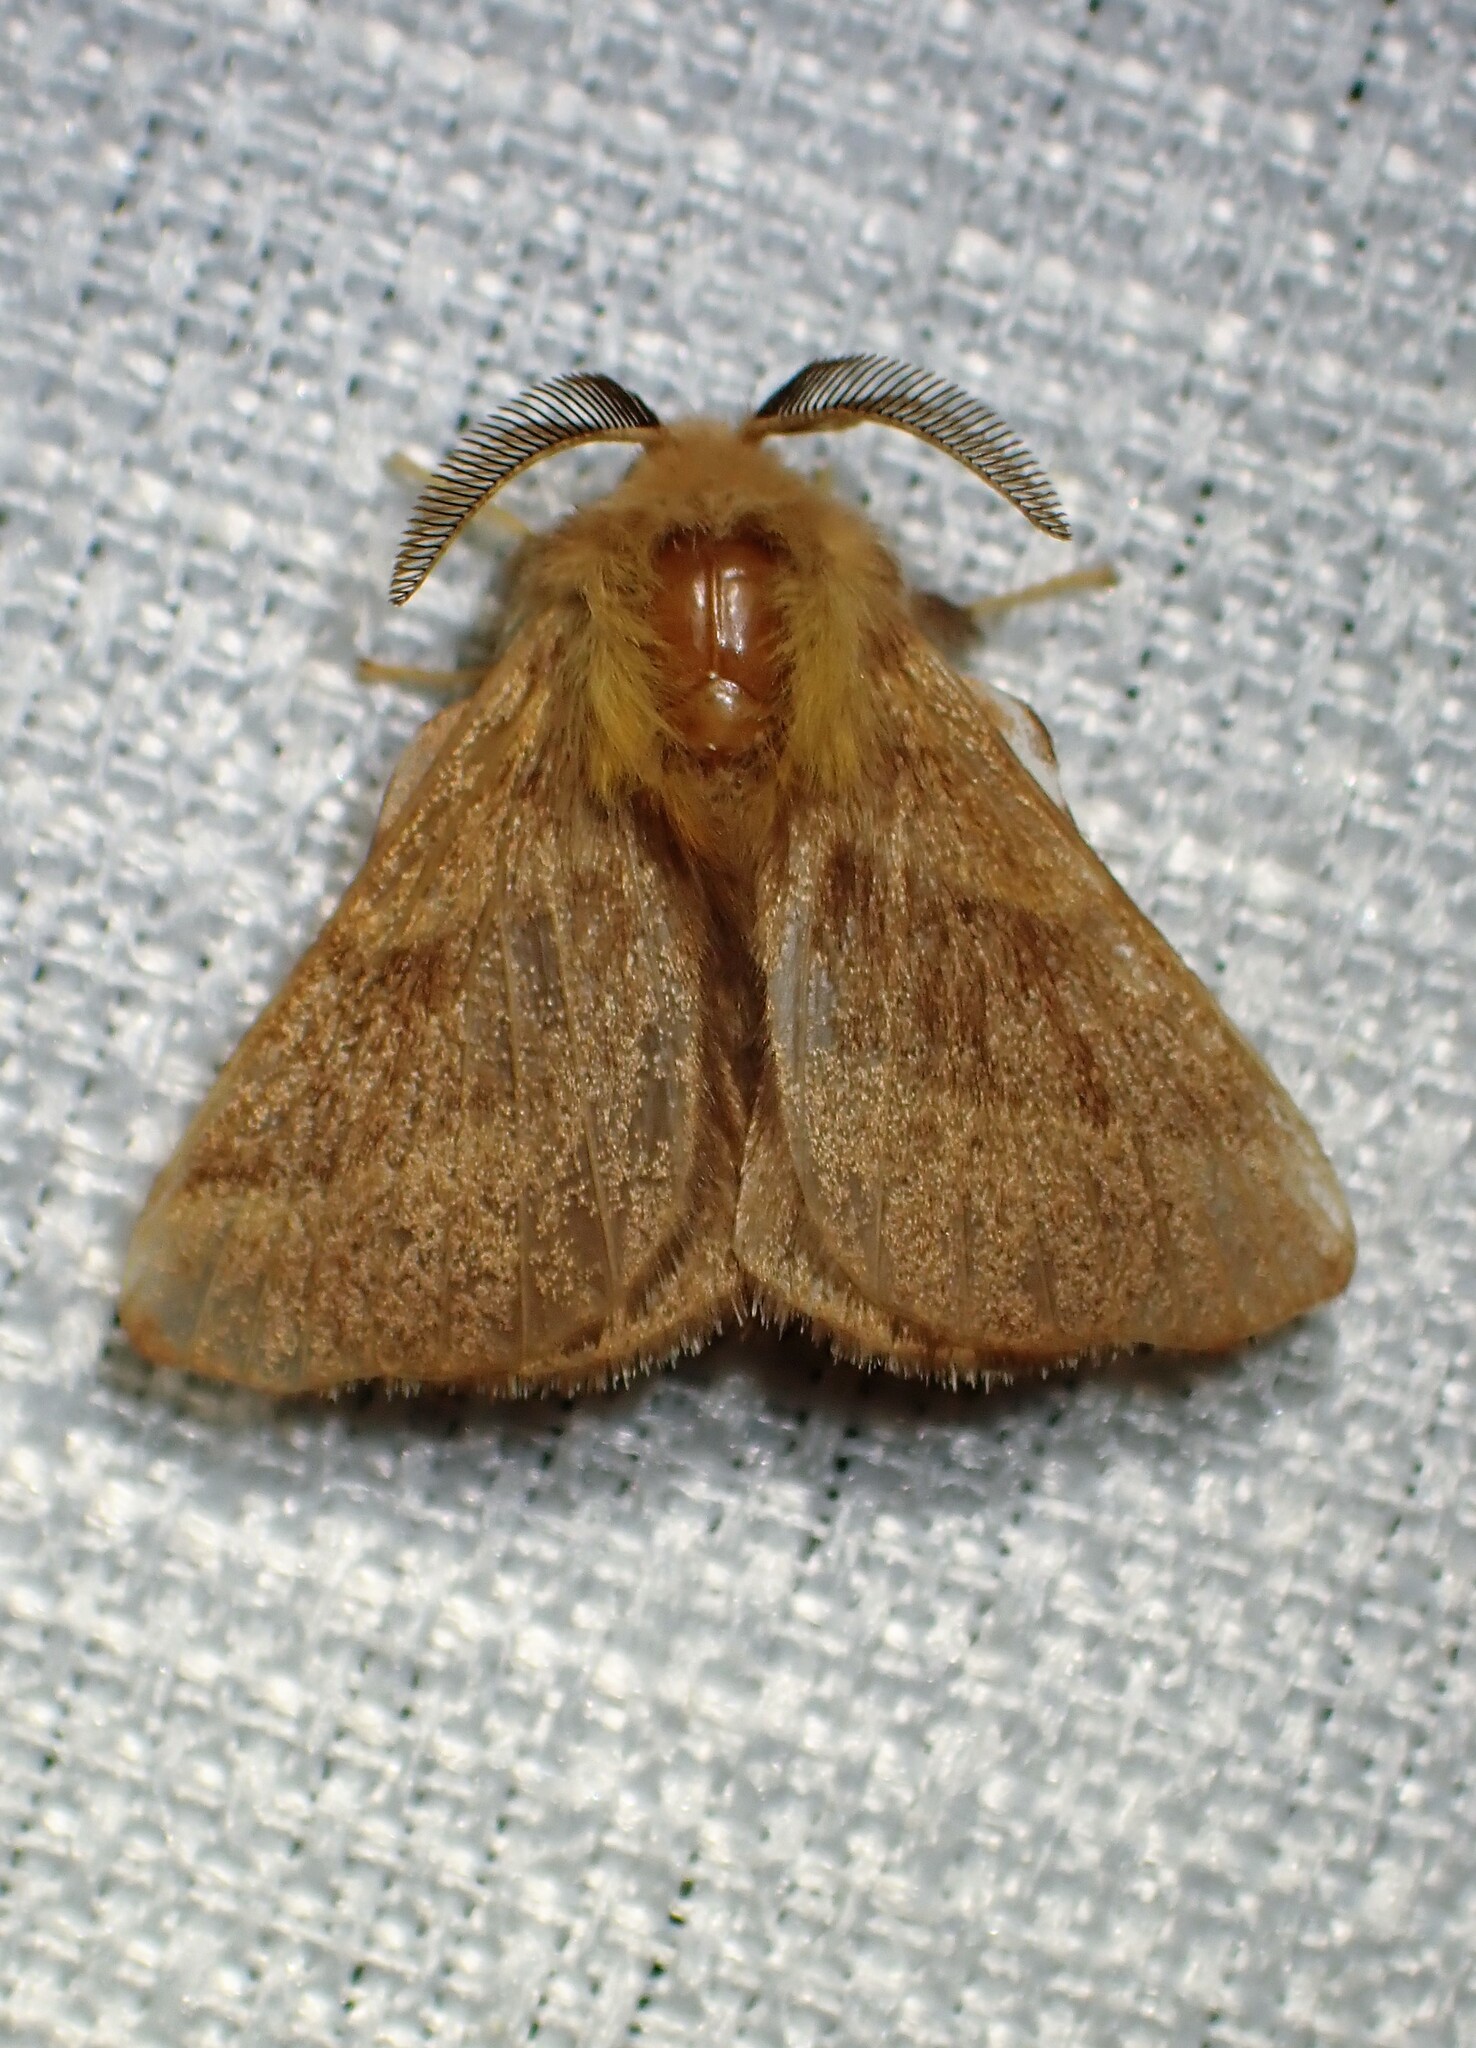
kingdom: Animalia
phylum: Arthropoda
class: Insecta
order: Lepidoptera
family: Lasiocampidae
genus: Malacosoma
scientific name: Malacosoma disstria
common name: Forest tent caterpillar
